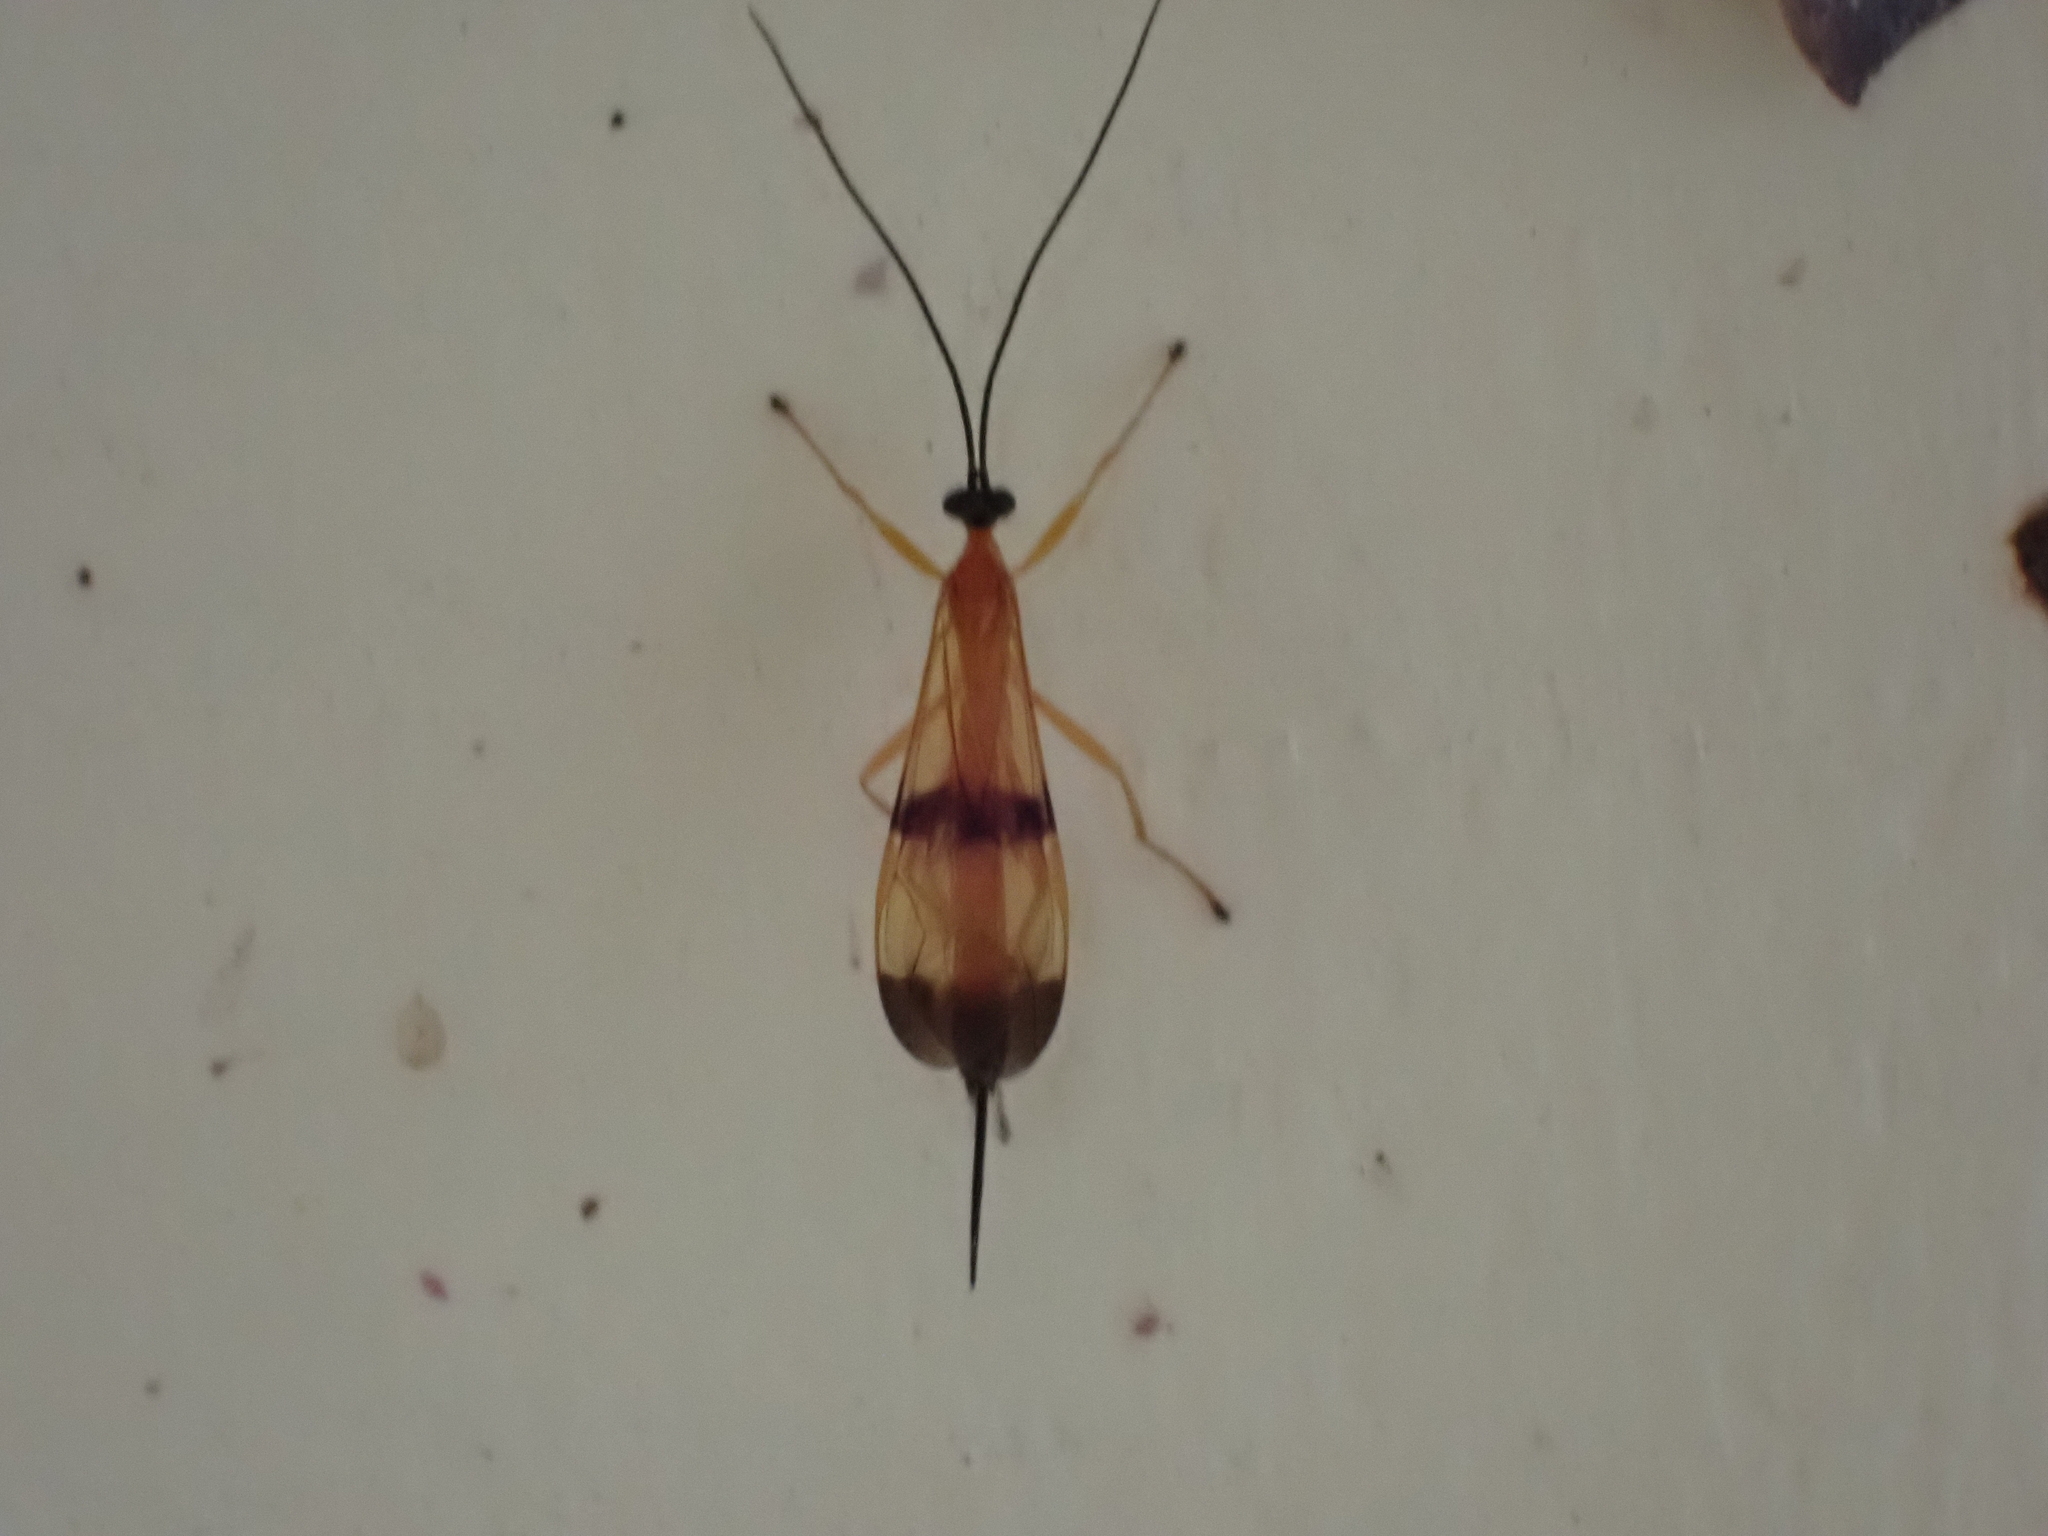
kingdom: Animalia
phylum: Arthropoda
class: Insecta
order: Hymenoptera
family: Ichneumonidae
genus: Acrotaphus
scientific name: Acrotaphus wiltii
